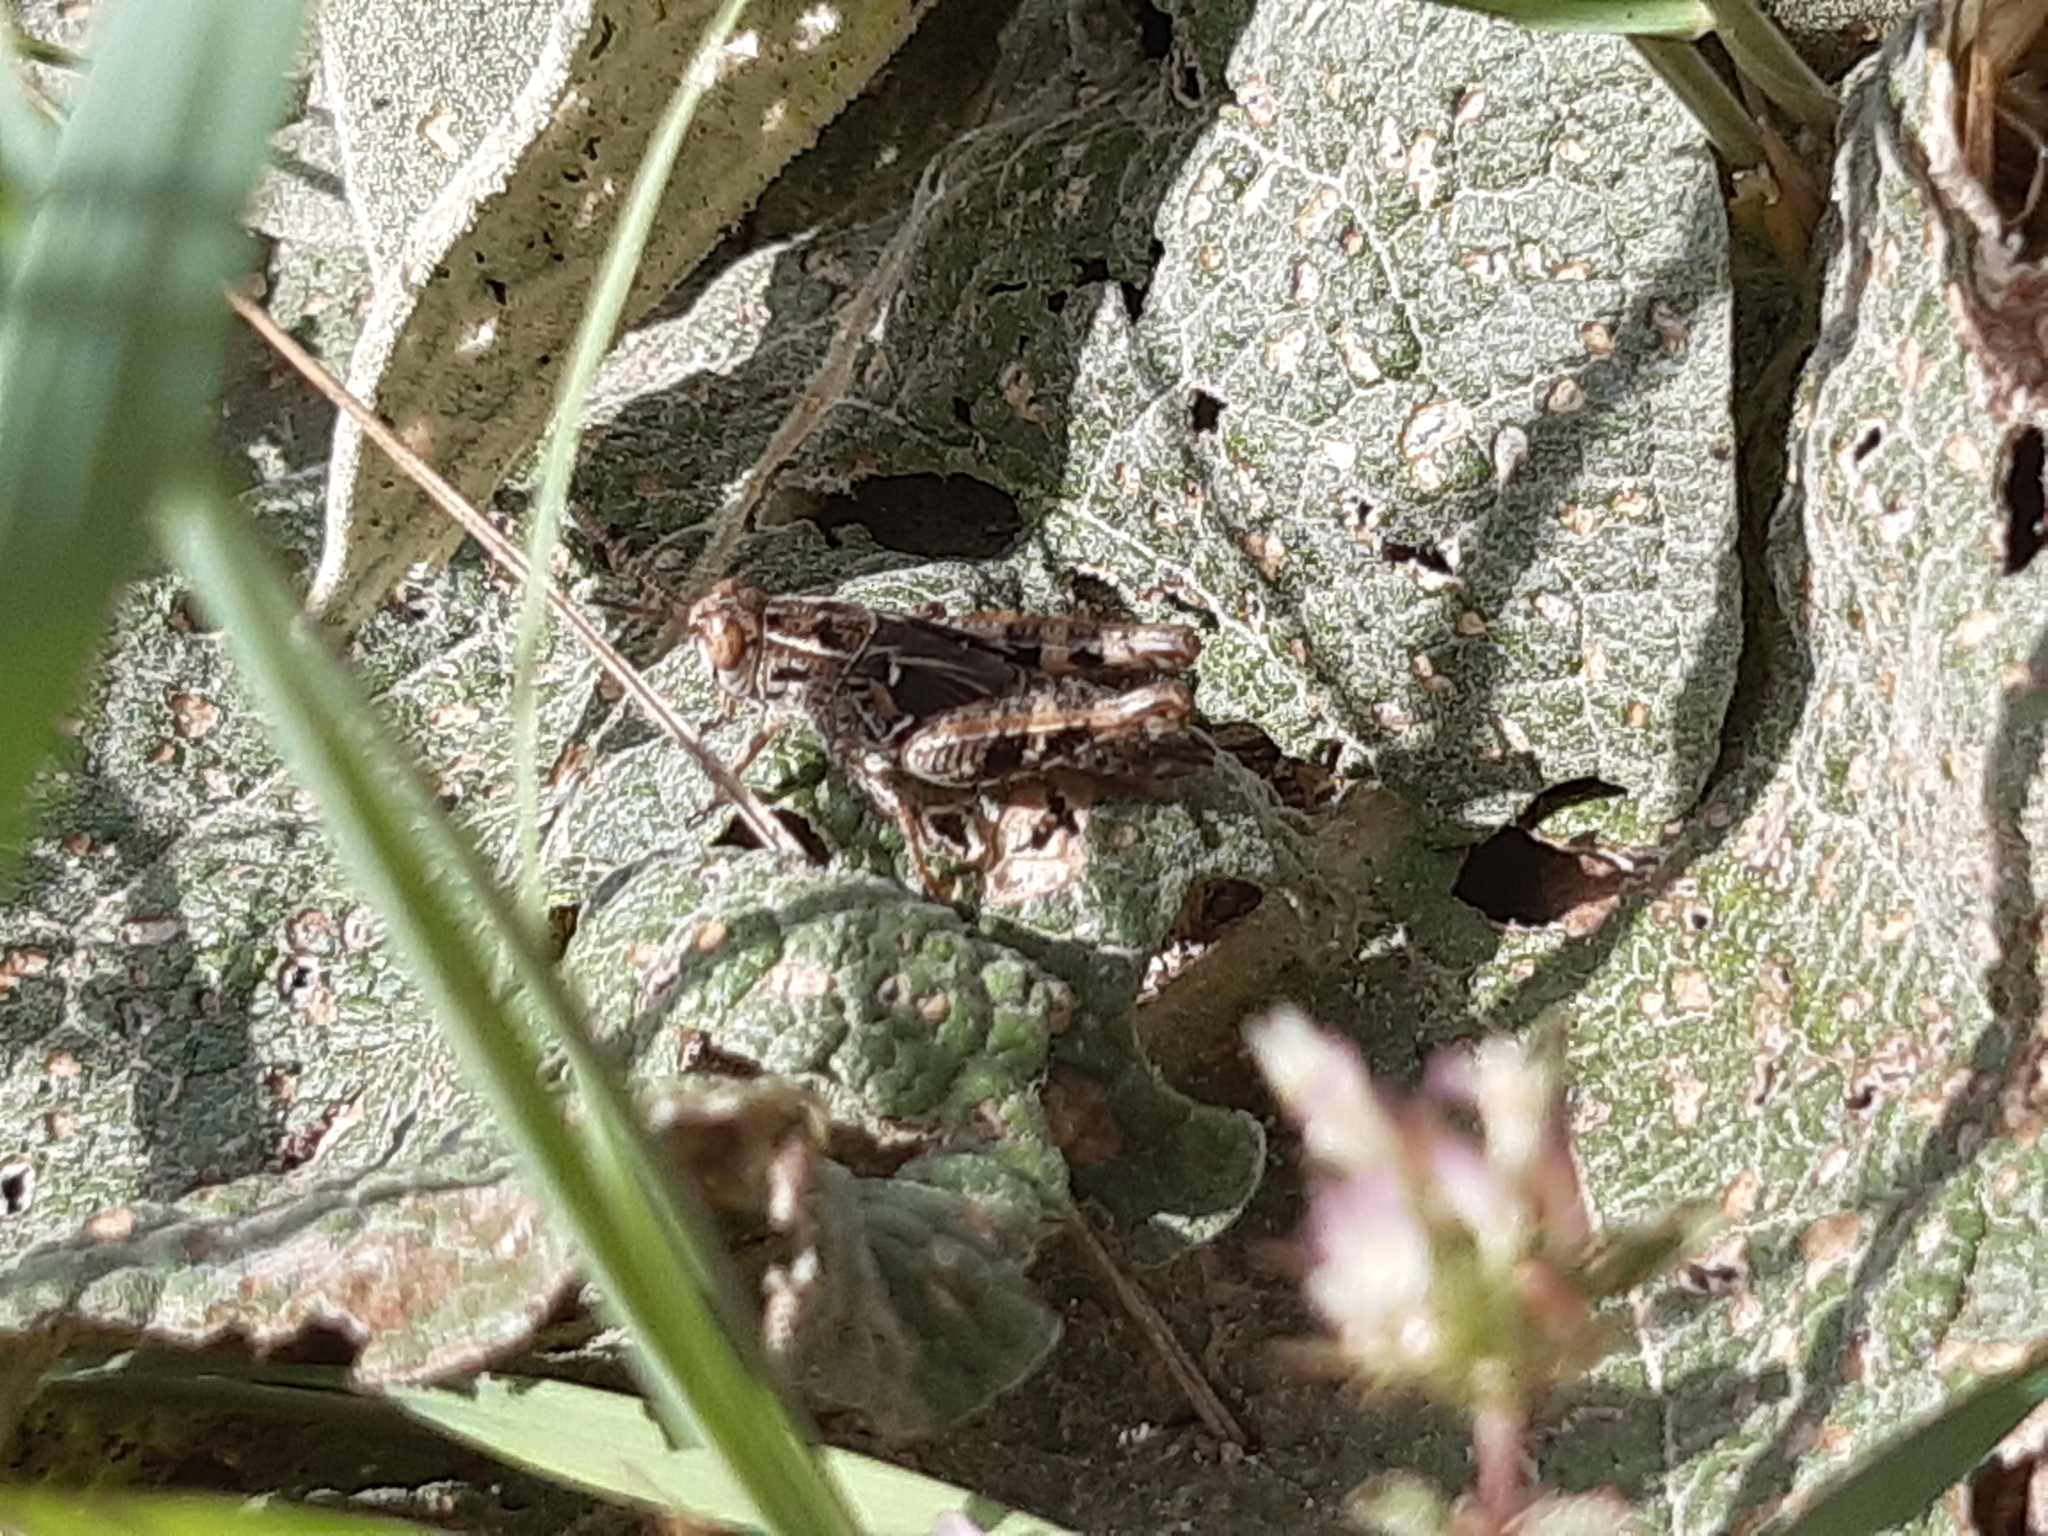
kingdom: Animalia
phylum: Arthropoda
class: Insecta
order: Orthoptera
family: Acrididae
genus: Calliptamus
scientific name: Calliptamus italicus
